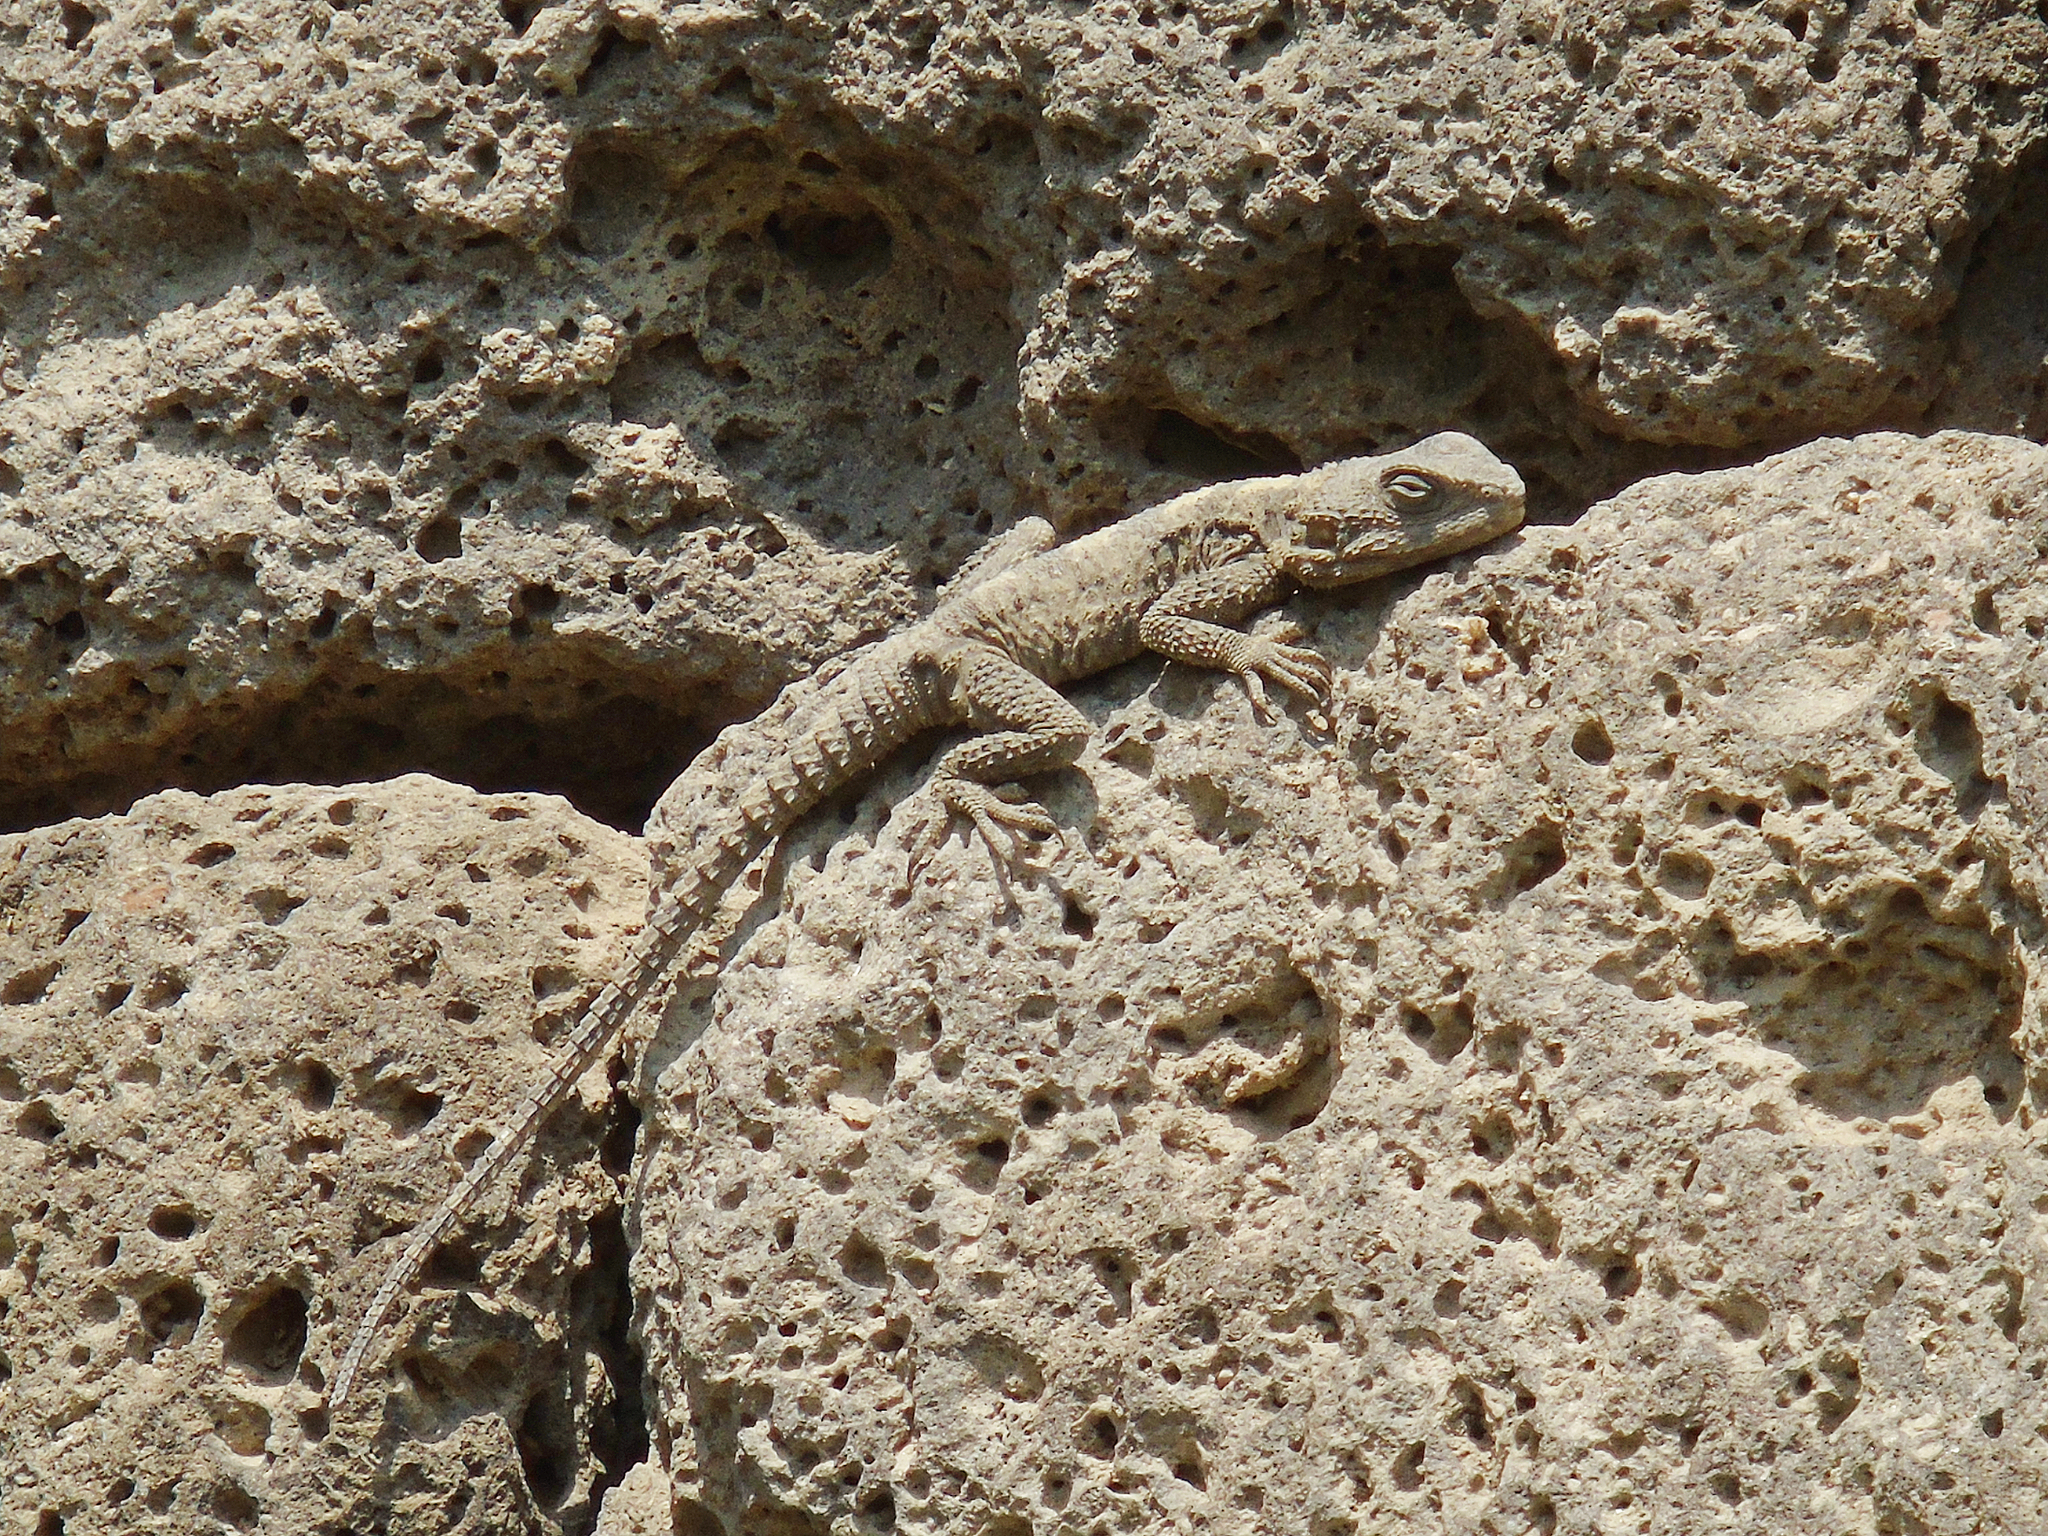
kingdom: Animalia
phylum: Chordata
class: Squamata
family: Agamidae
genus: Stellagama
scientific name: Stellagama stellio
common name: Starred agama
